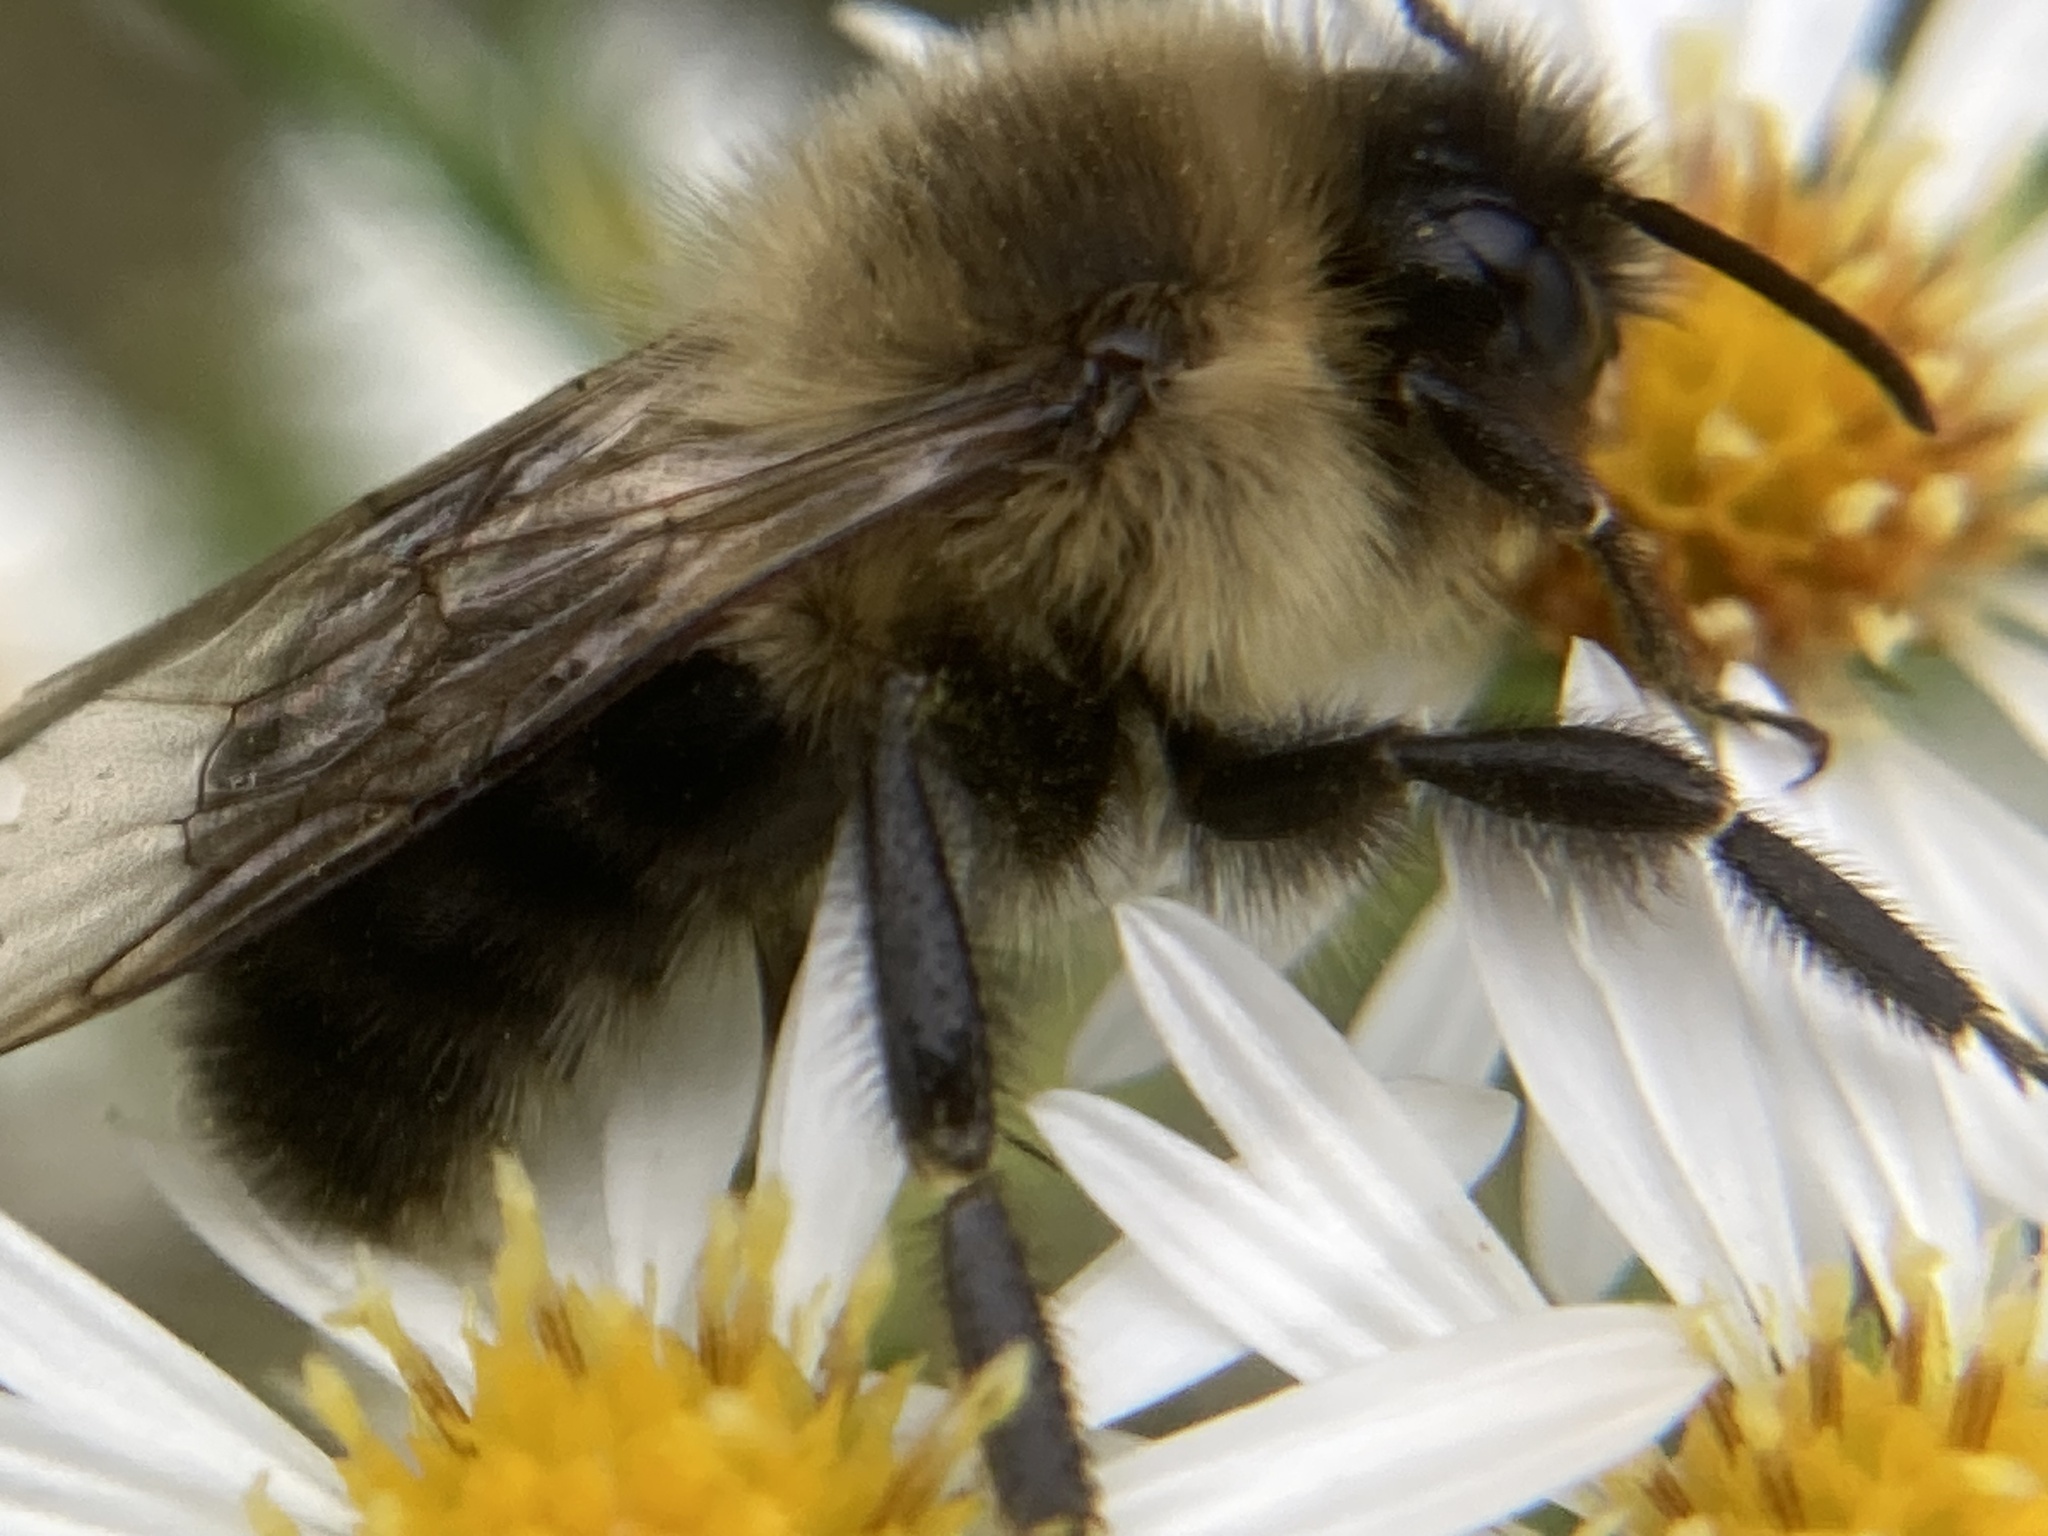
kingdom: Animalia
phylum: Arthropoda
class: Insecta
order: Hymenoptera
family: Apidae
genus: Bombus
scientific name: Bombus impatiens
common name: Common eastern bumble bee
